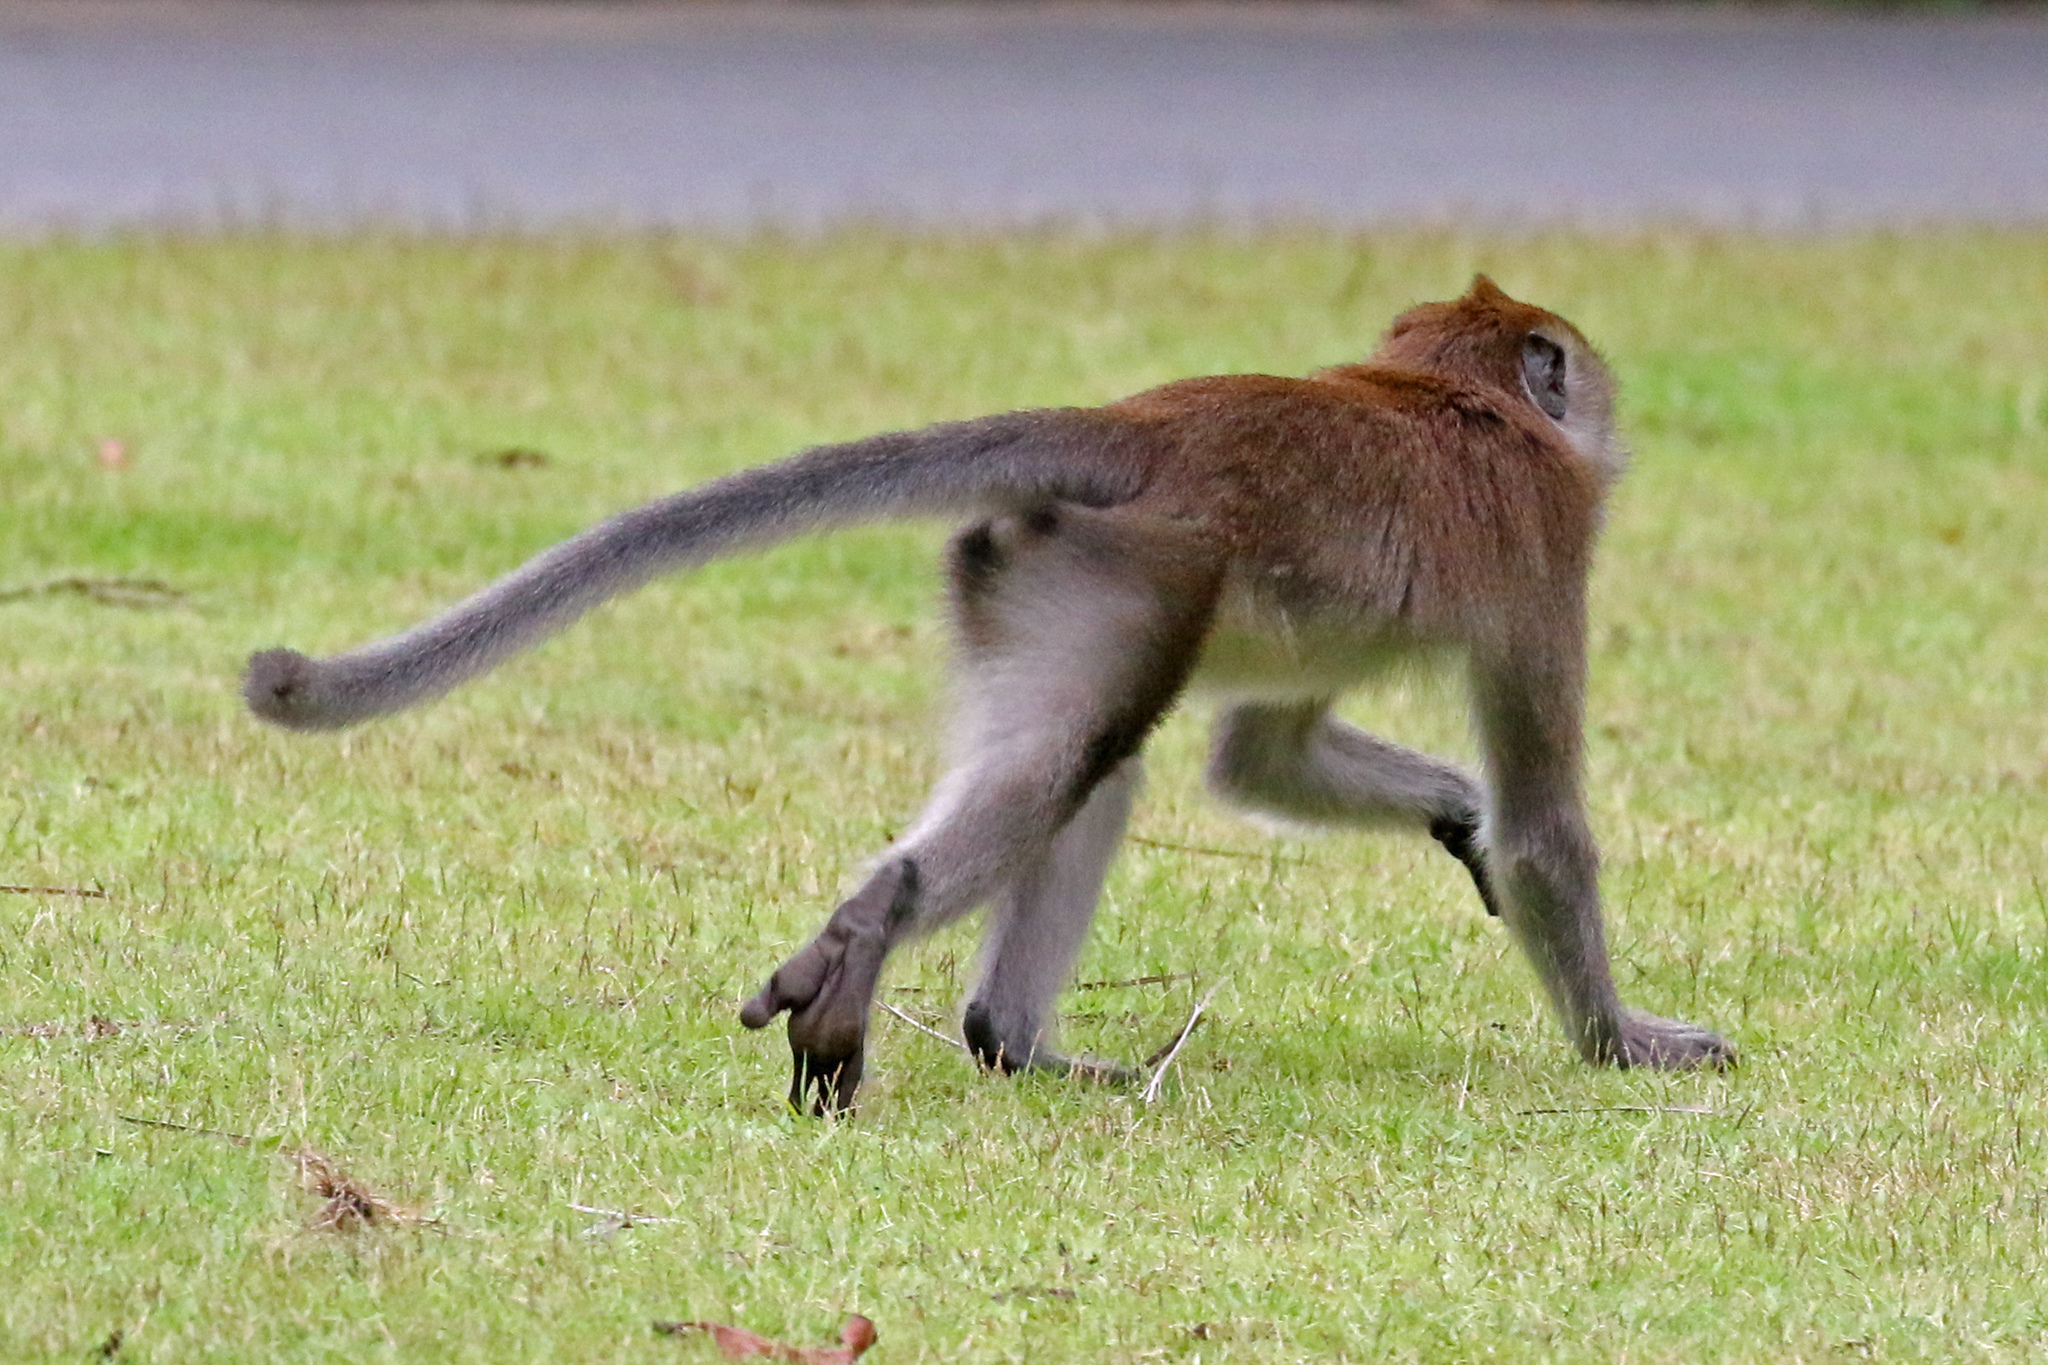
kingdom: Animalia
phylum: Chordata
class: Mammalia
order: Primates
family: Cercopithecidae
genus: Macaca
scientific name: Macaca fascicularis
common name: Crab-eating macaque
